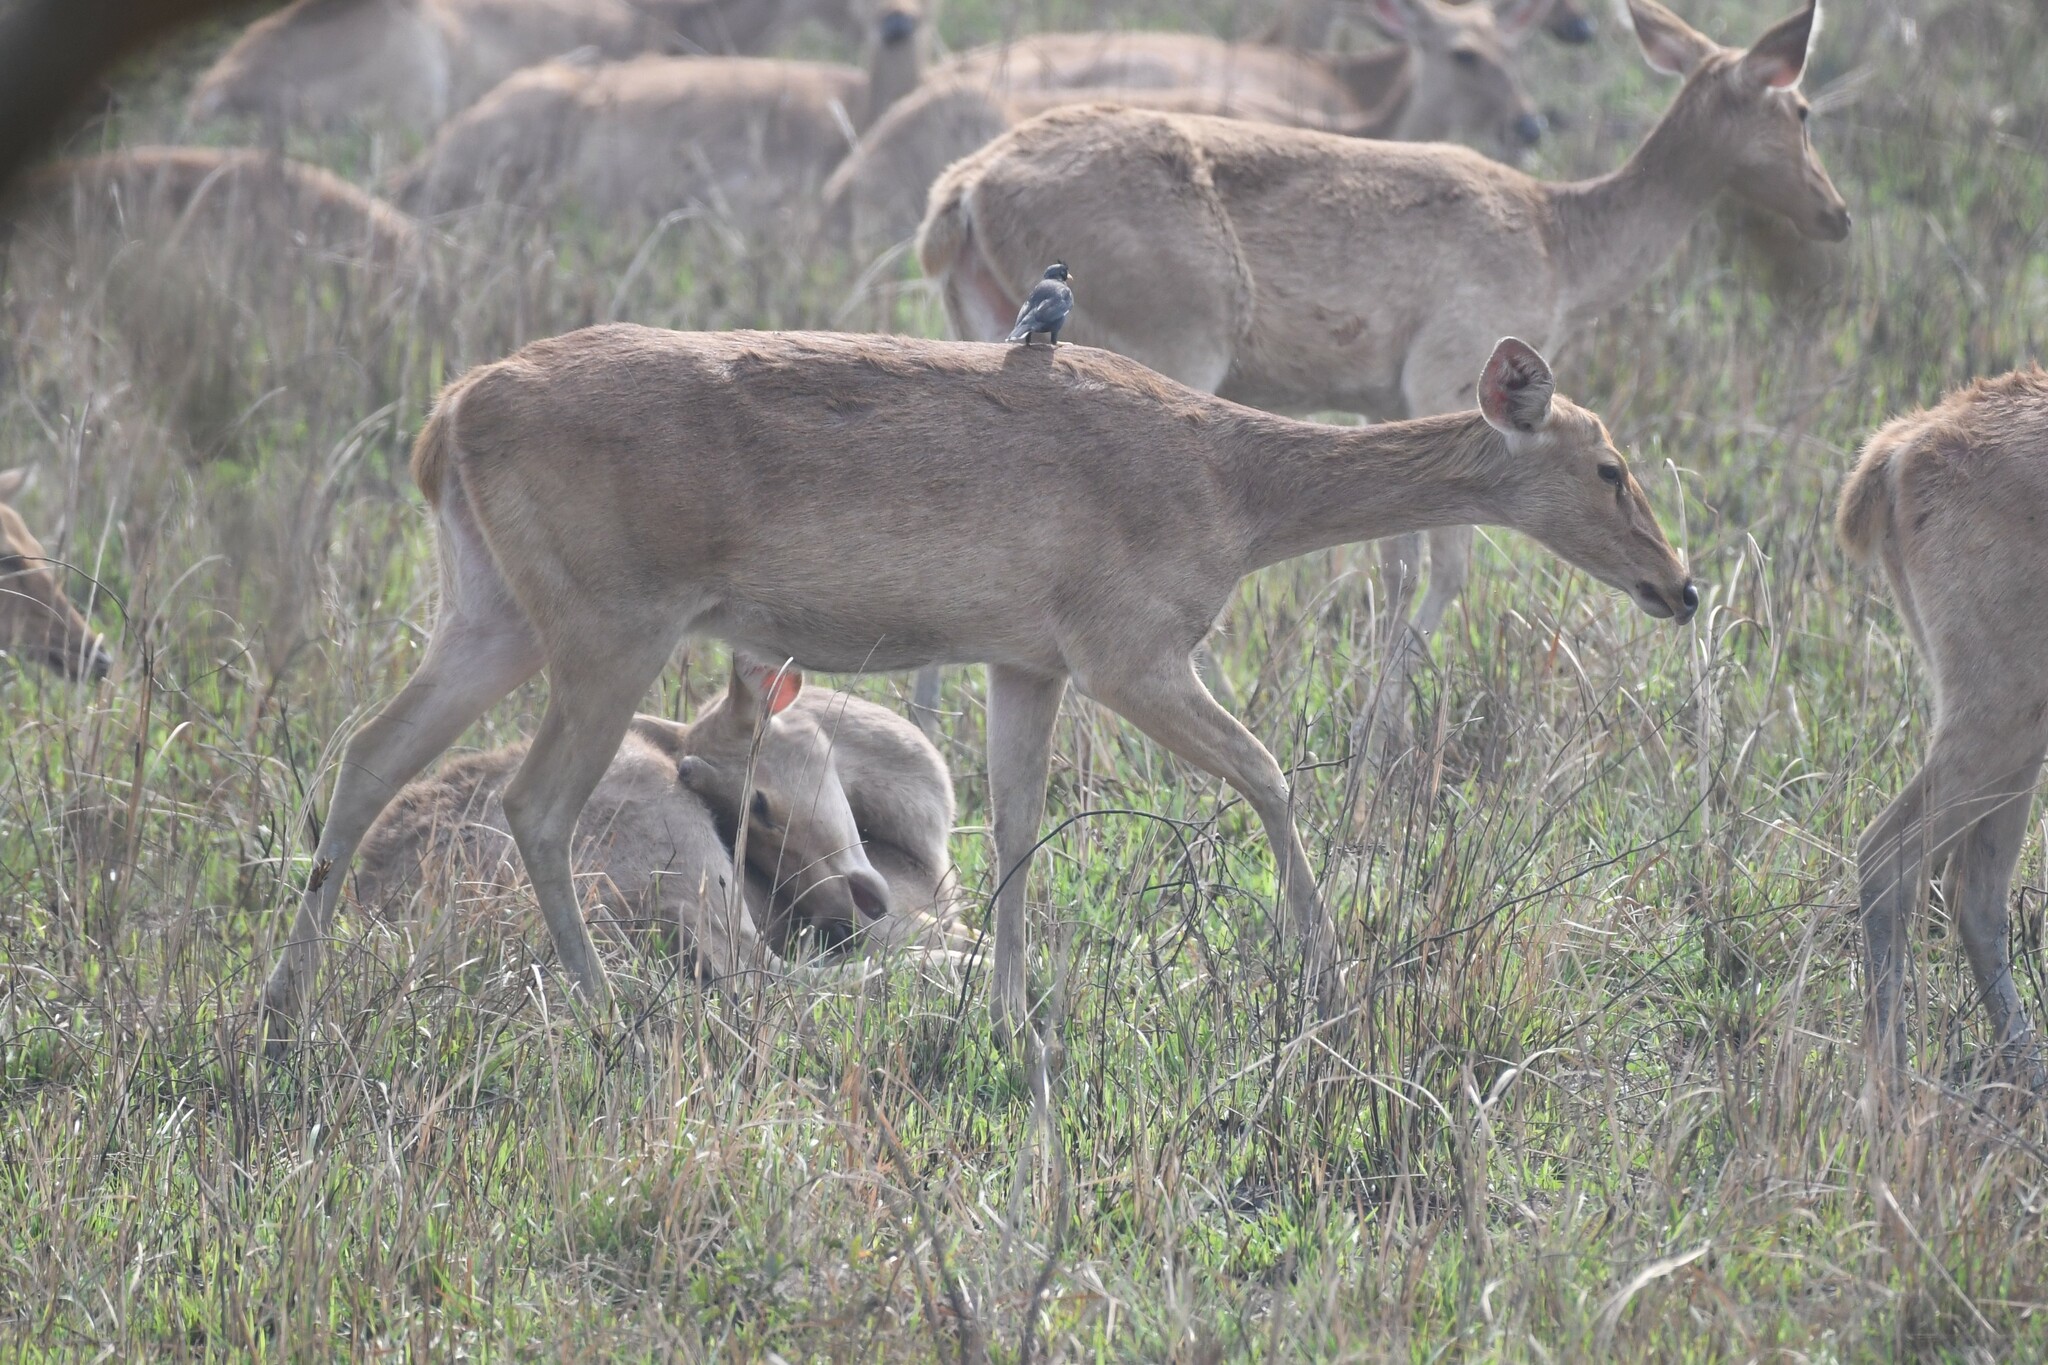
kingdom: Animalia
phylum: Chordata
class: Mammalia
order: Artiodactyla
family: Cervidae
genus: Rucervus
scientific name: Rucervus duvaucelii
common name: Barasingha
